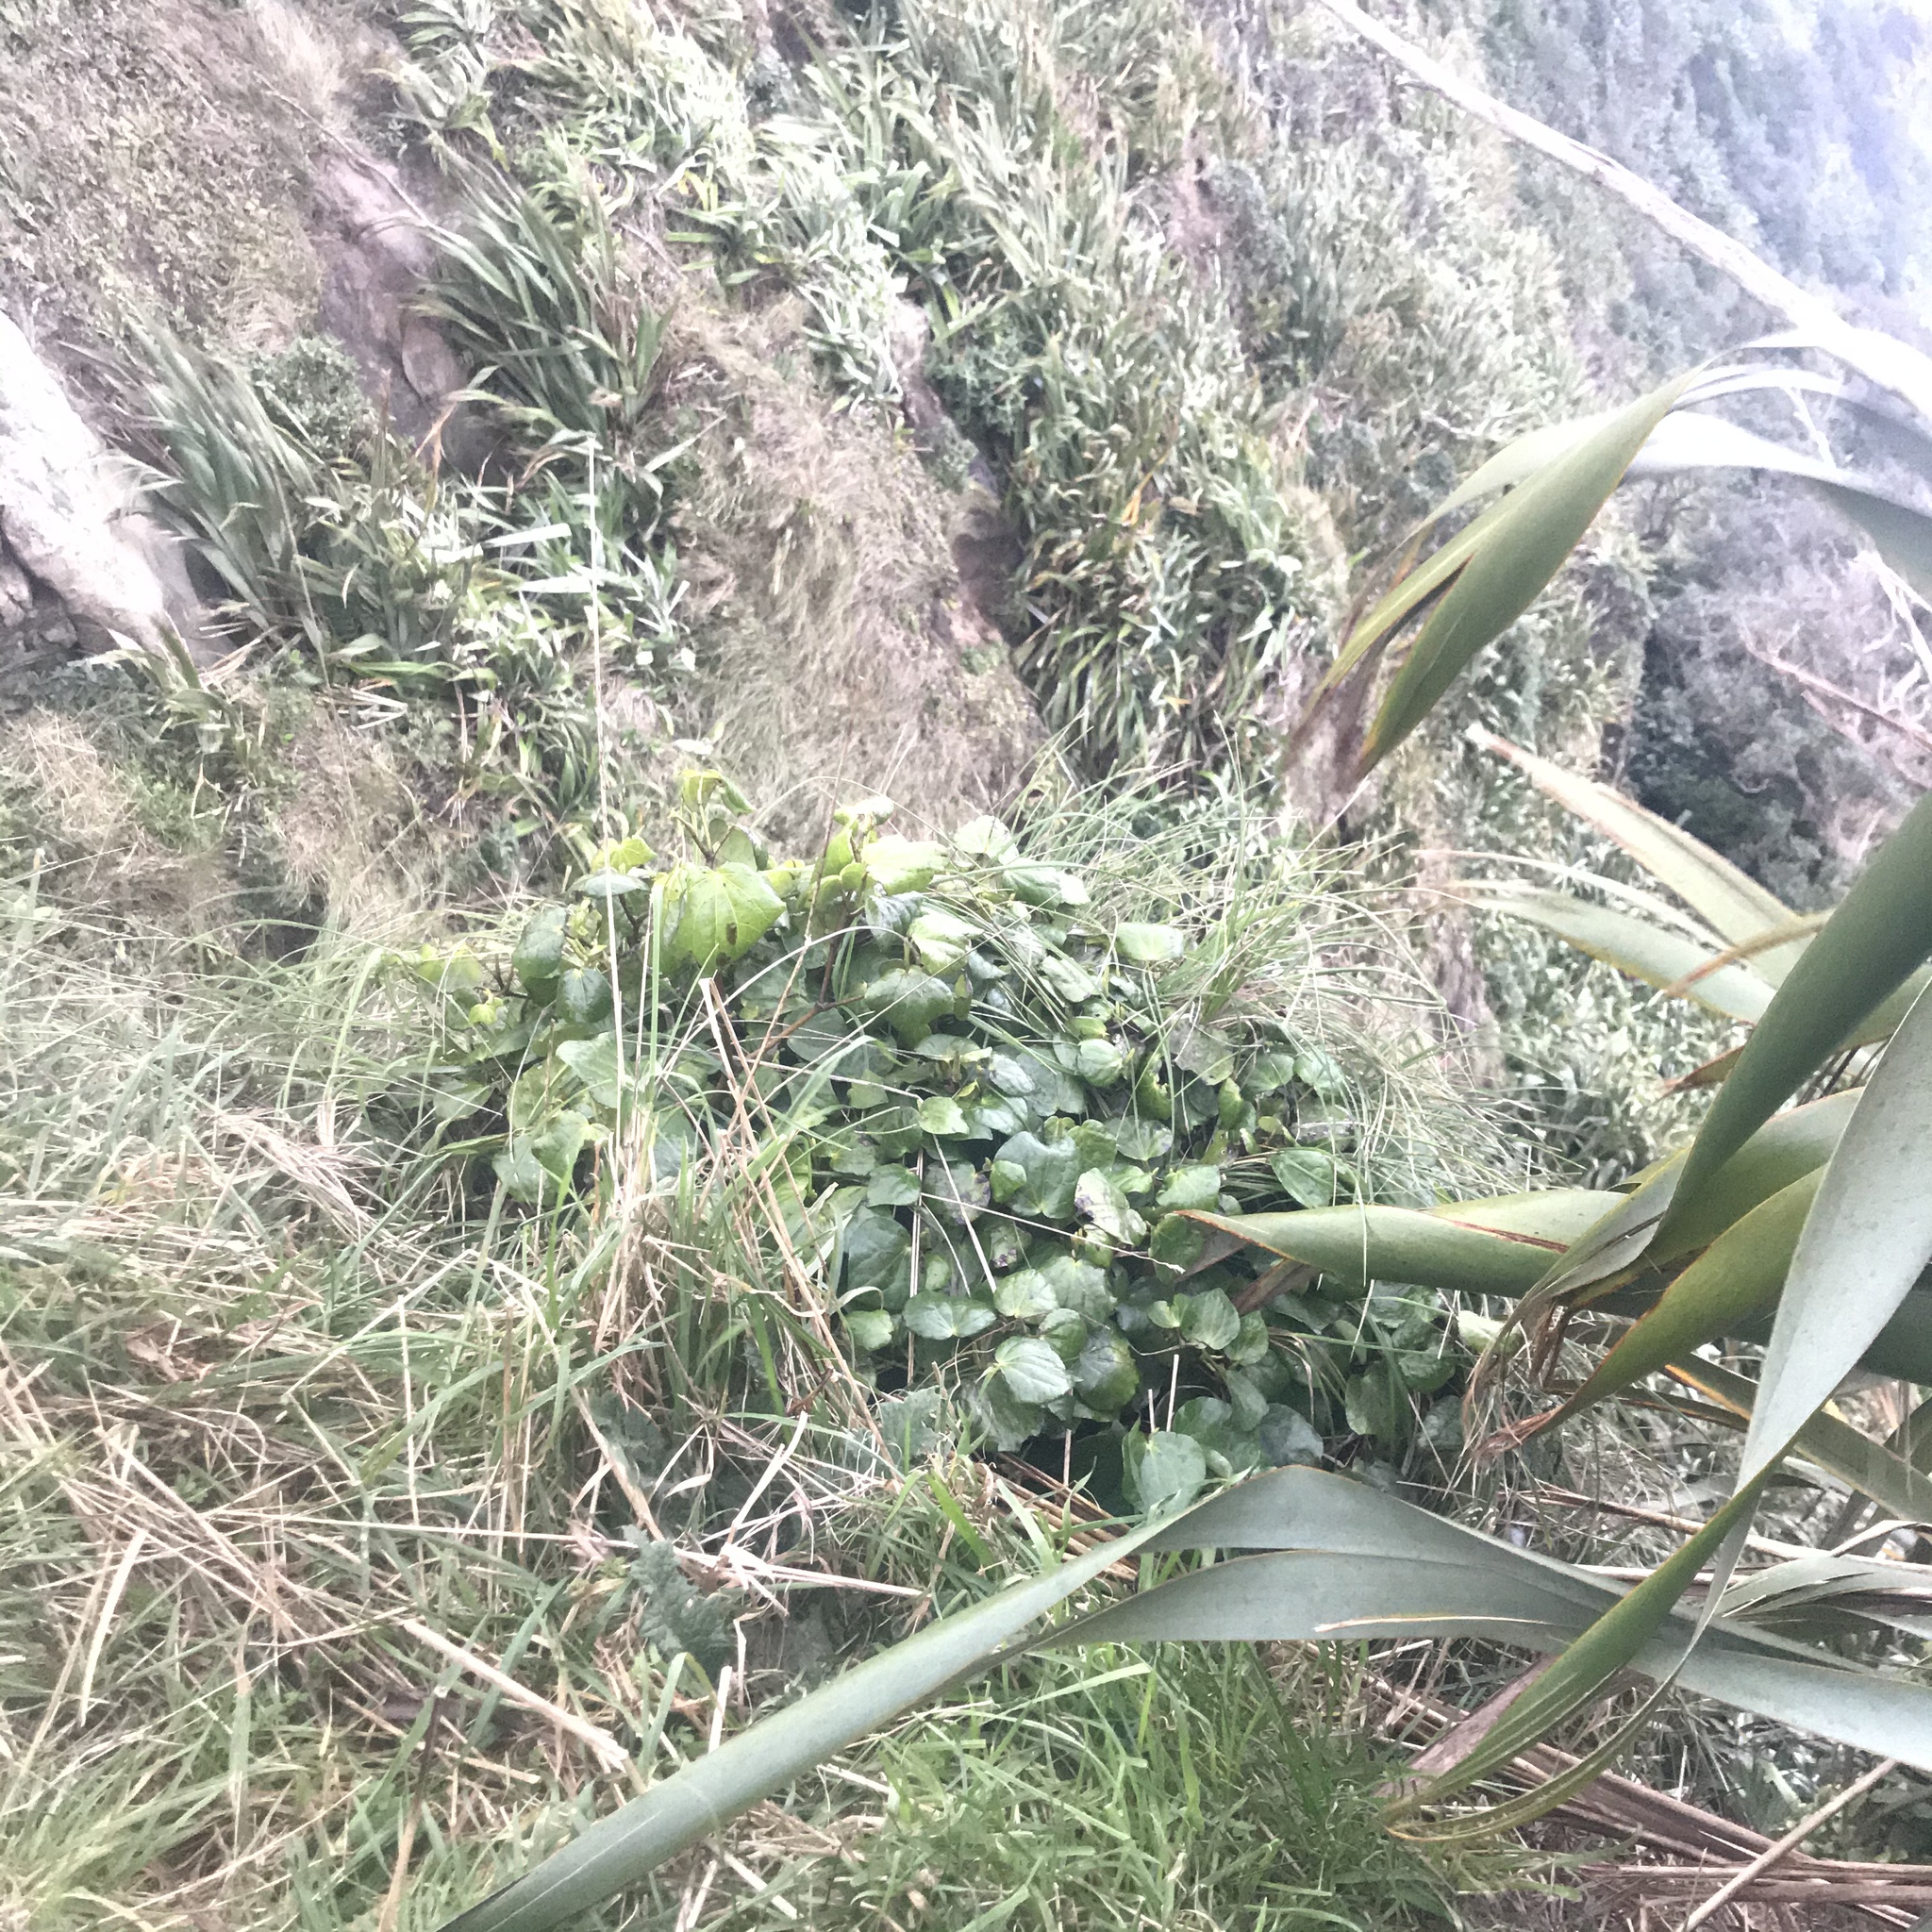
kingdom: Plantae
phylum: Tracheophyta
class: Magnoliopsida
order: Piperales
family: Piperaceae
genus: Macropiper
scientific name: Macropiper excelsum
